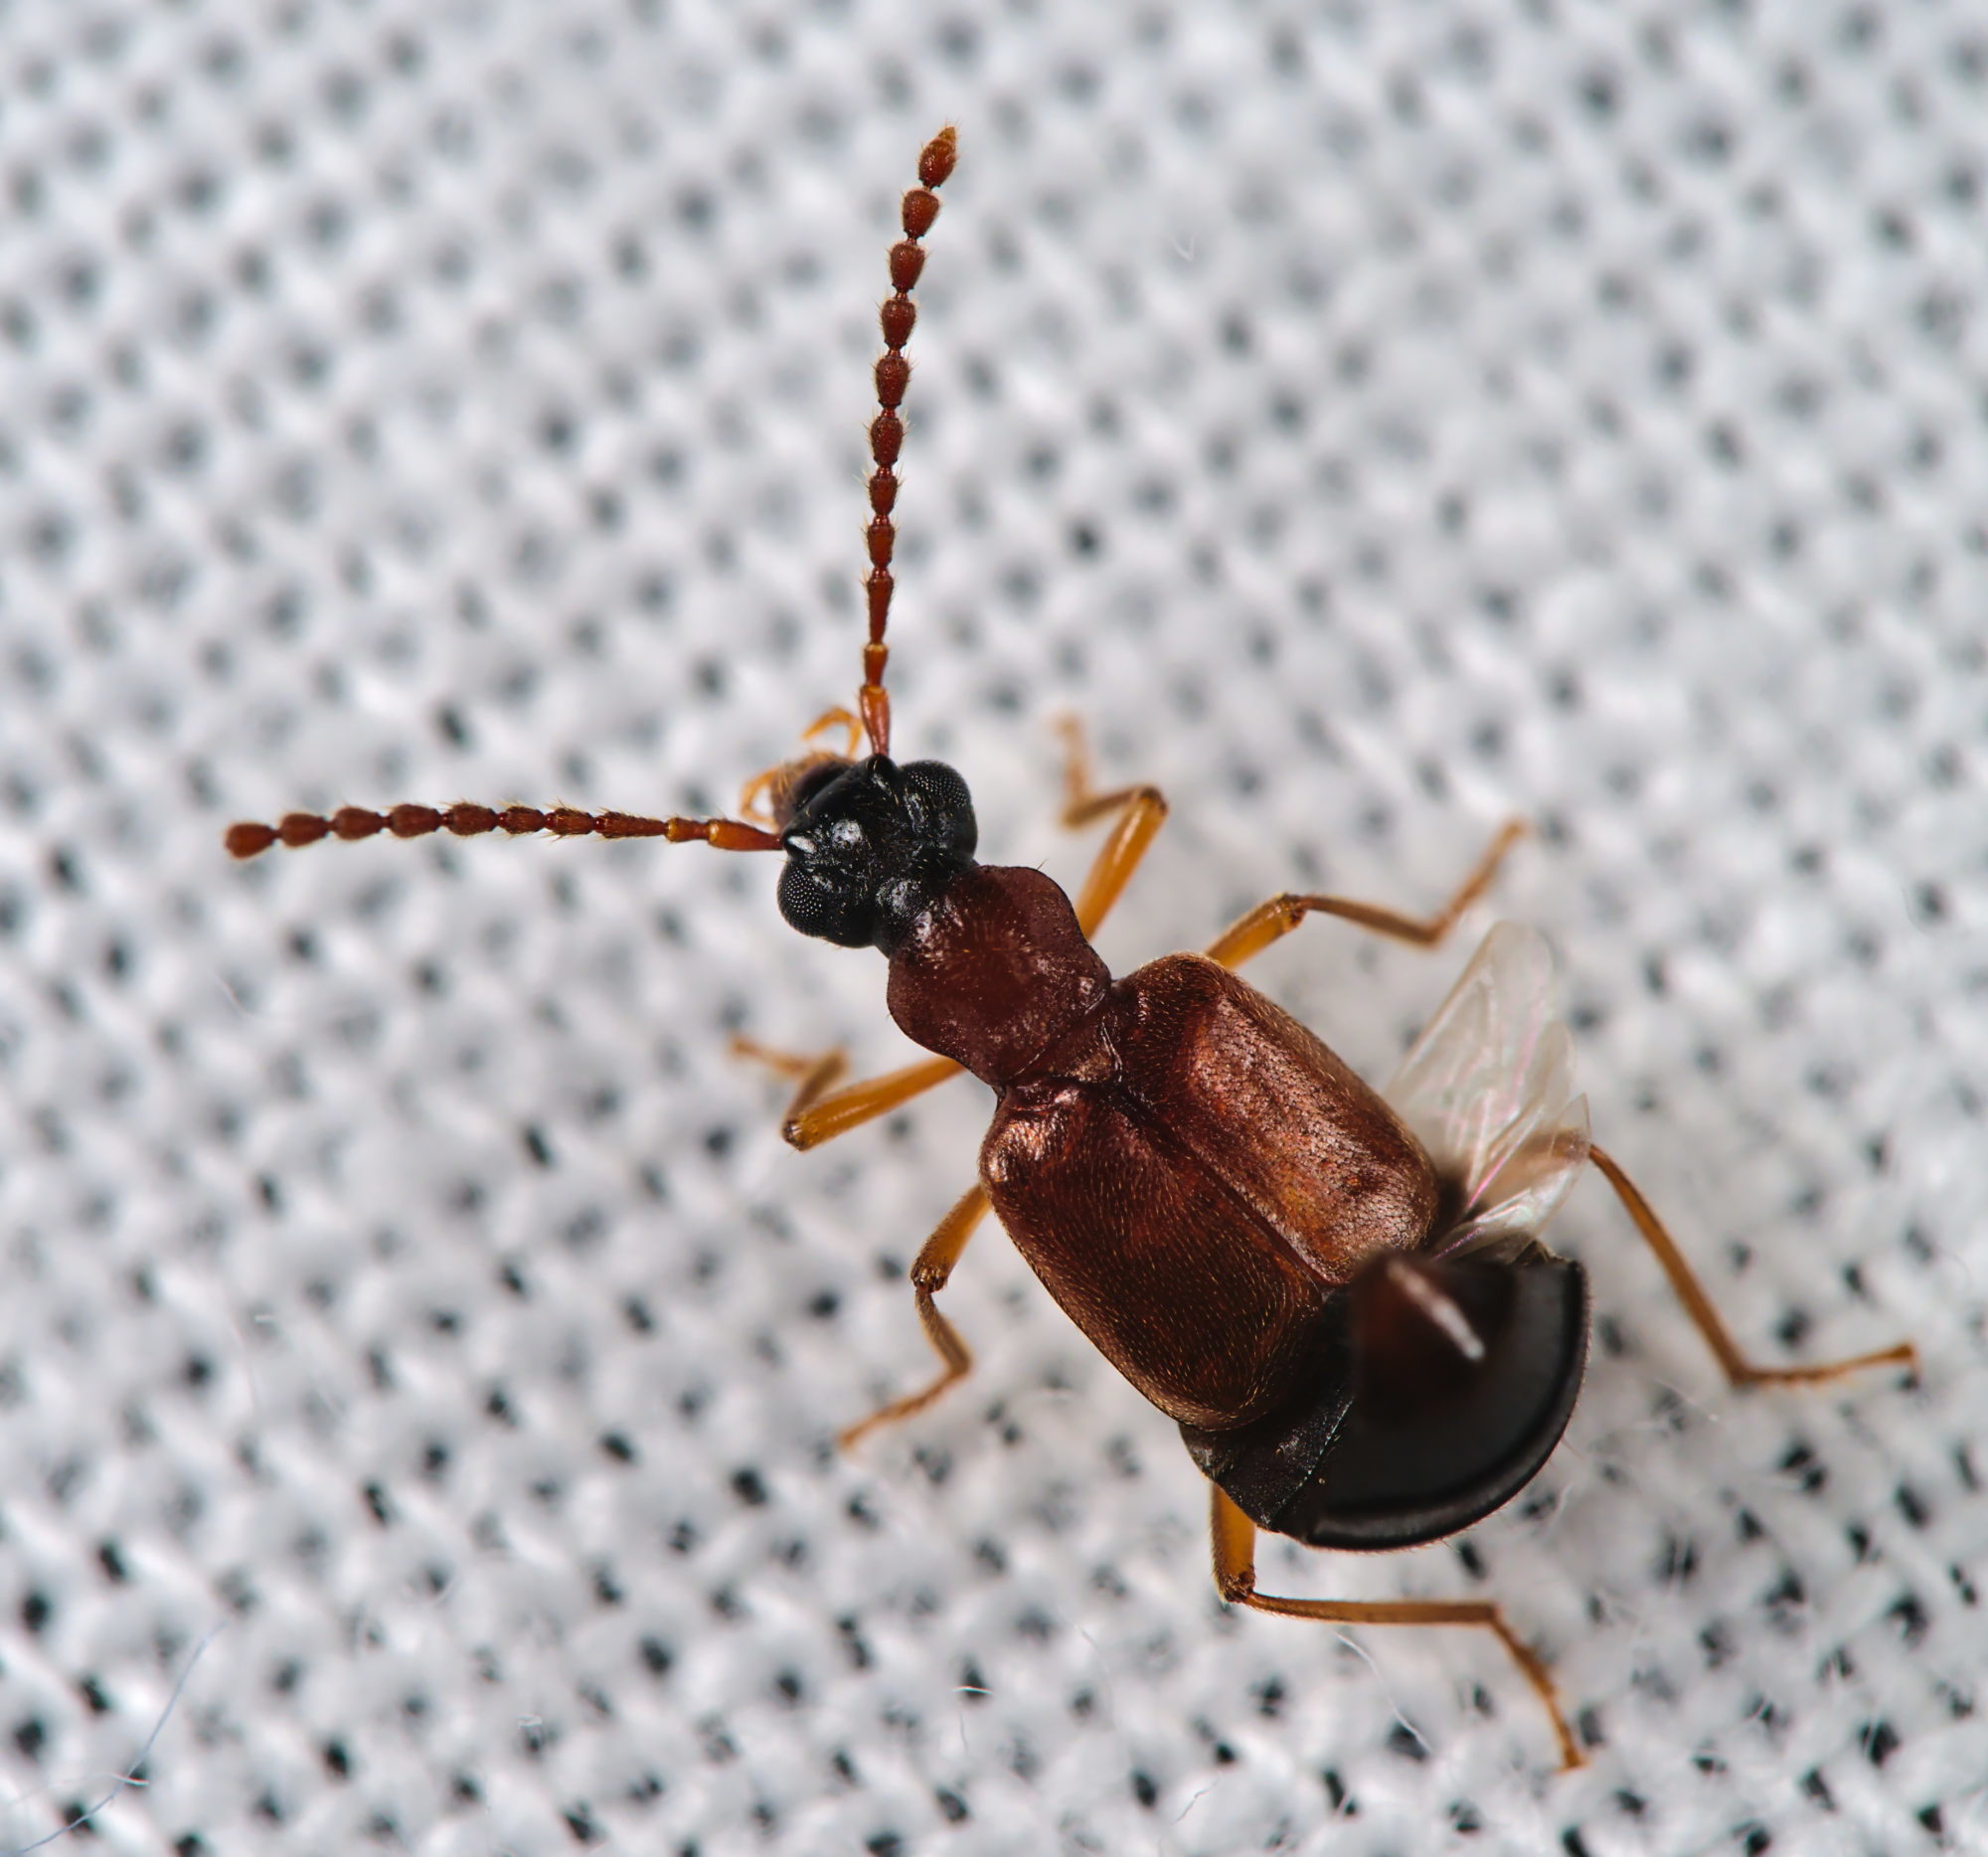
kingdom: Animalia
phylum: Arthropoda
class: Insecta
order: Coleoptera
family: Staphylinidae
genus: Deleaster
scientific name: Deleaster dichrous
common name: Rove beetle
